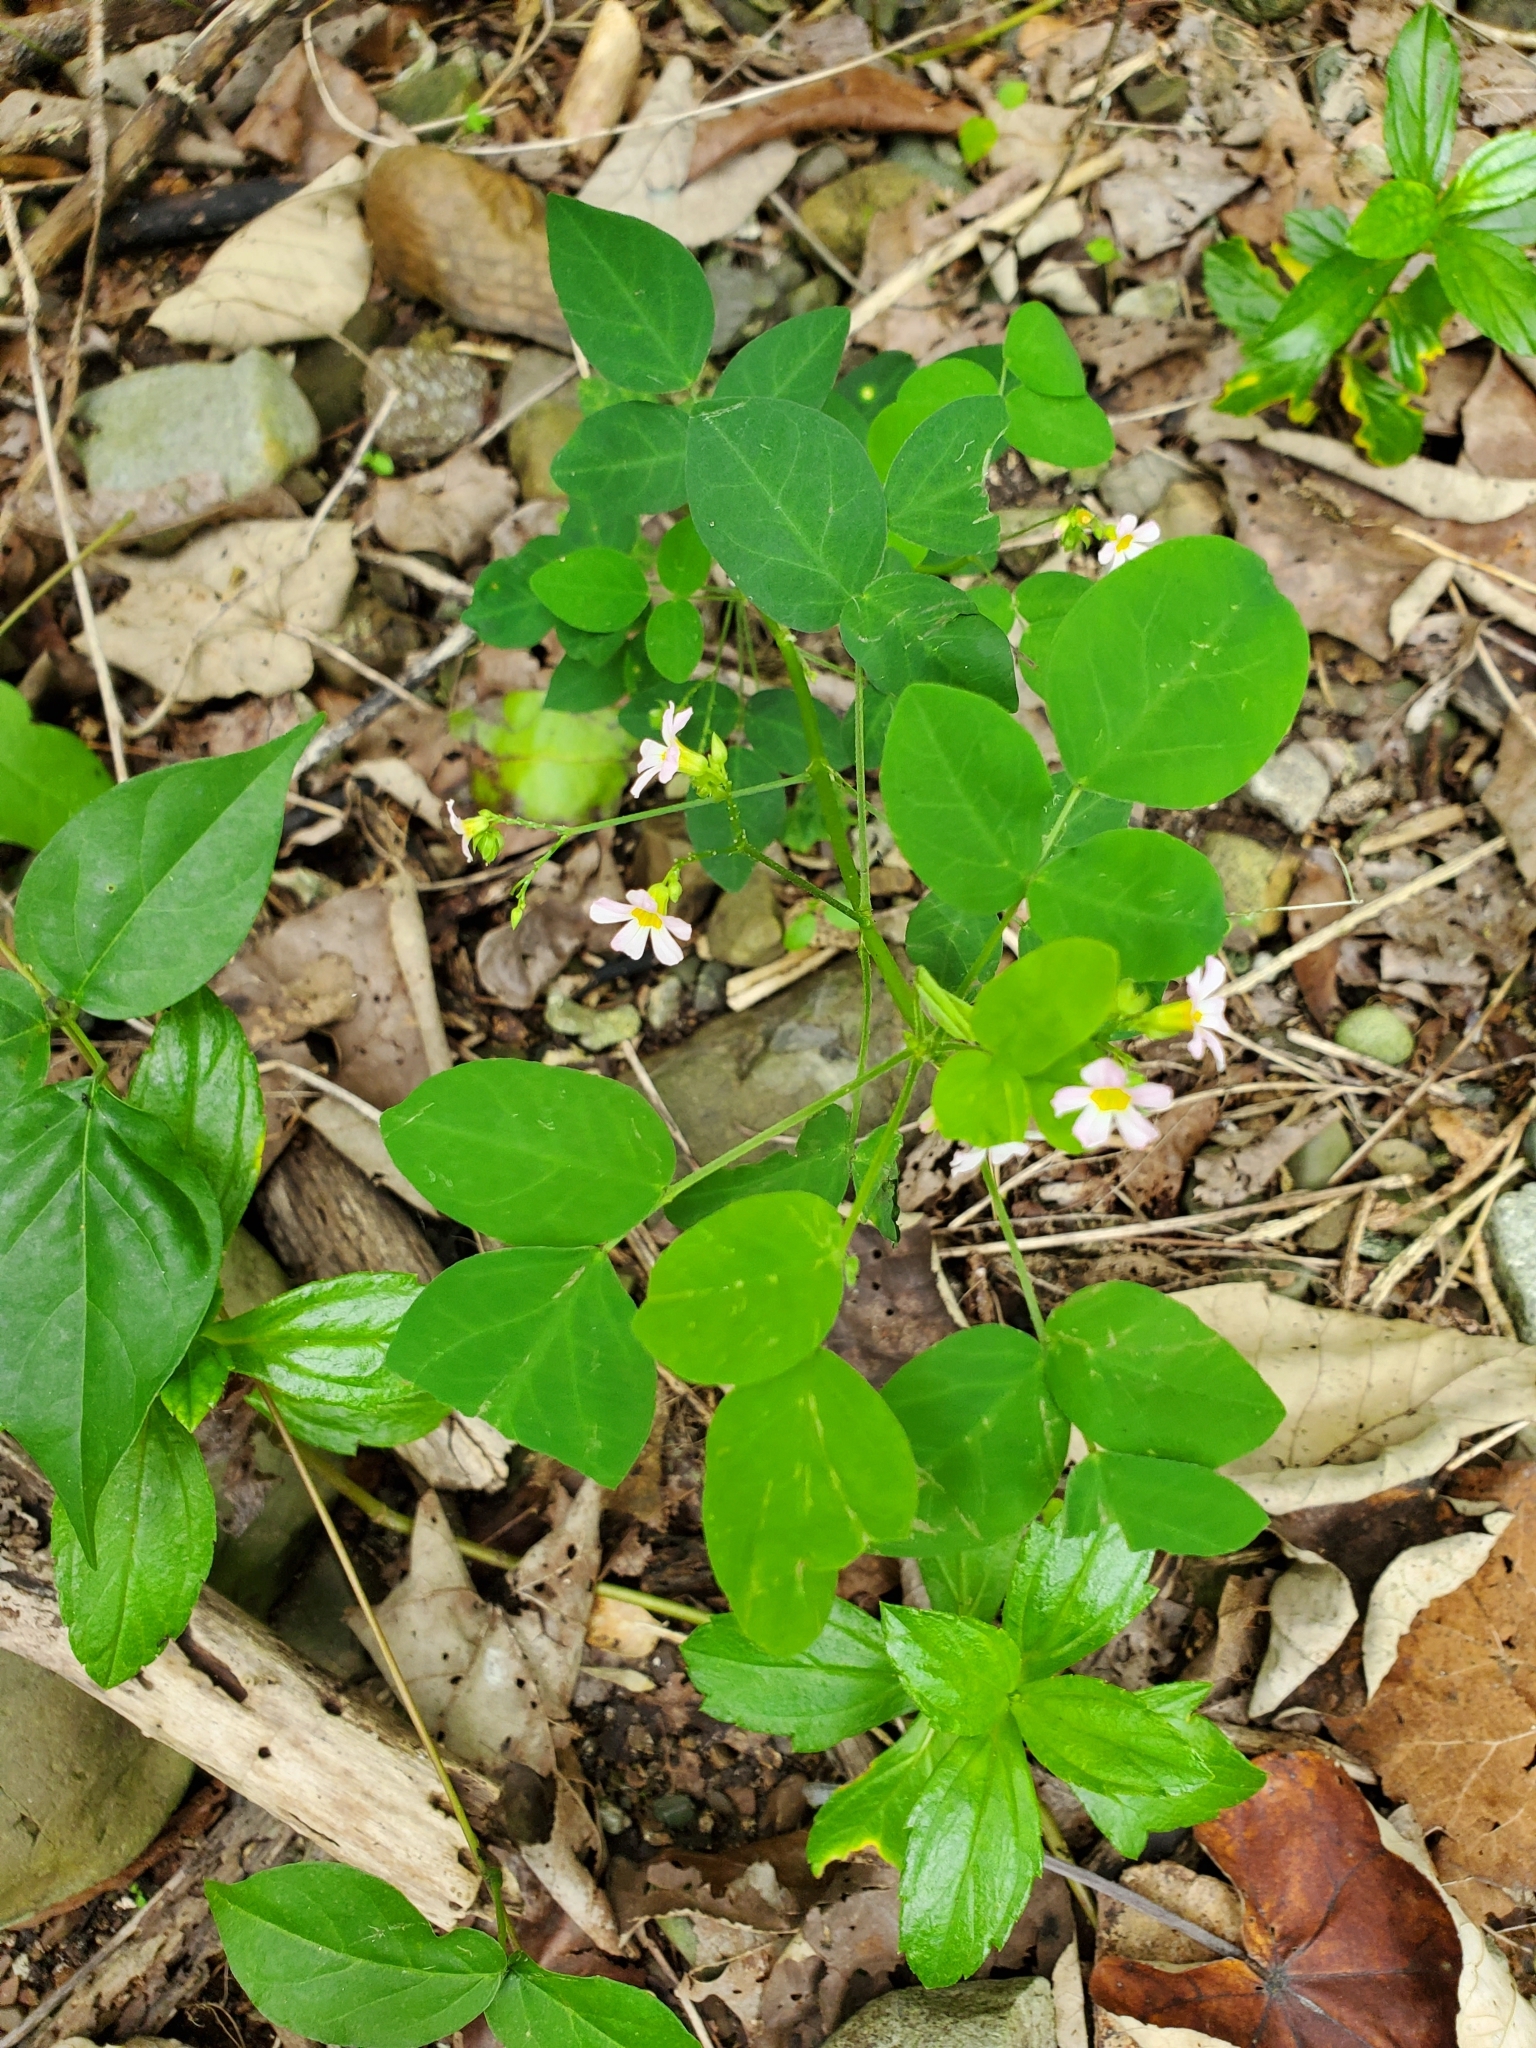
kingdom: Plantae
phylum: Tracheophyta
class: Magnoliopsida
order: Oxalidales
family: Oxalidaceae
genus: Oxalis
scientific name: Oxalis barrelieri
